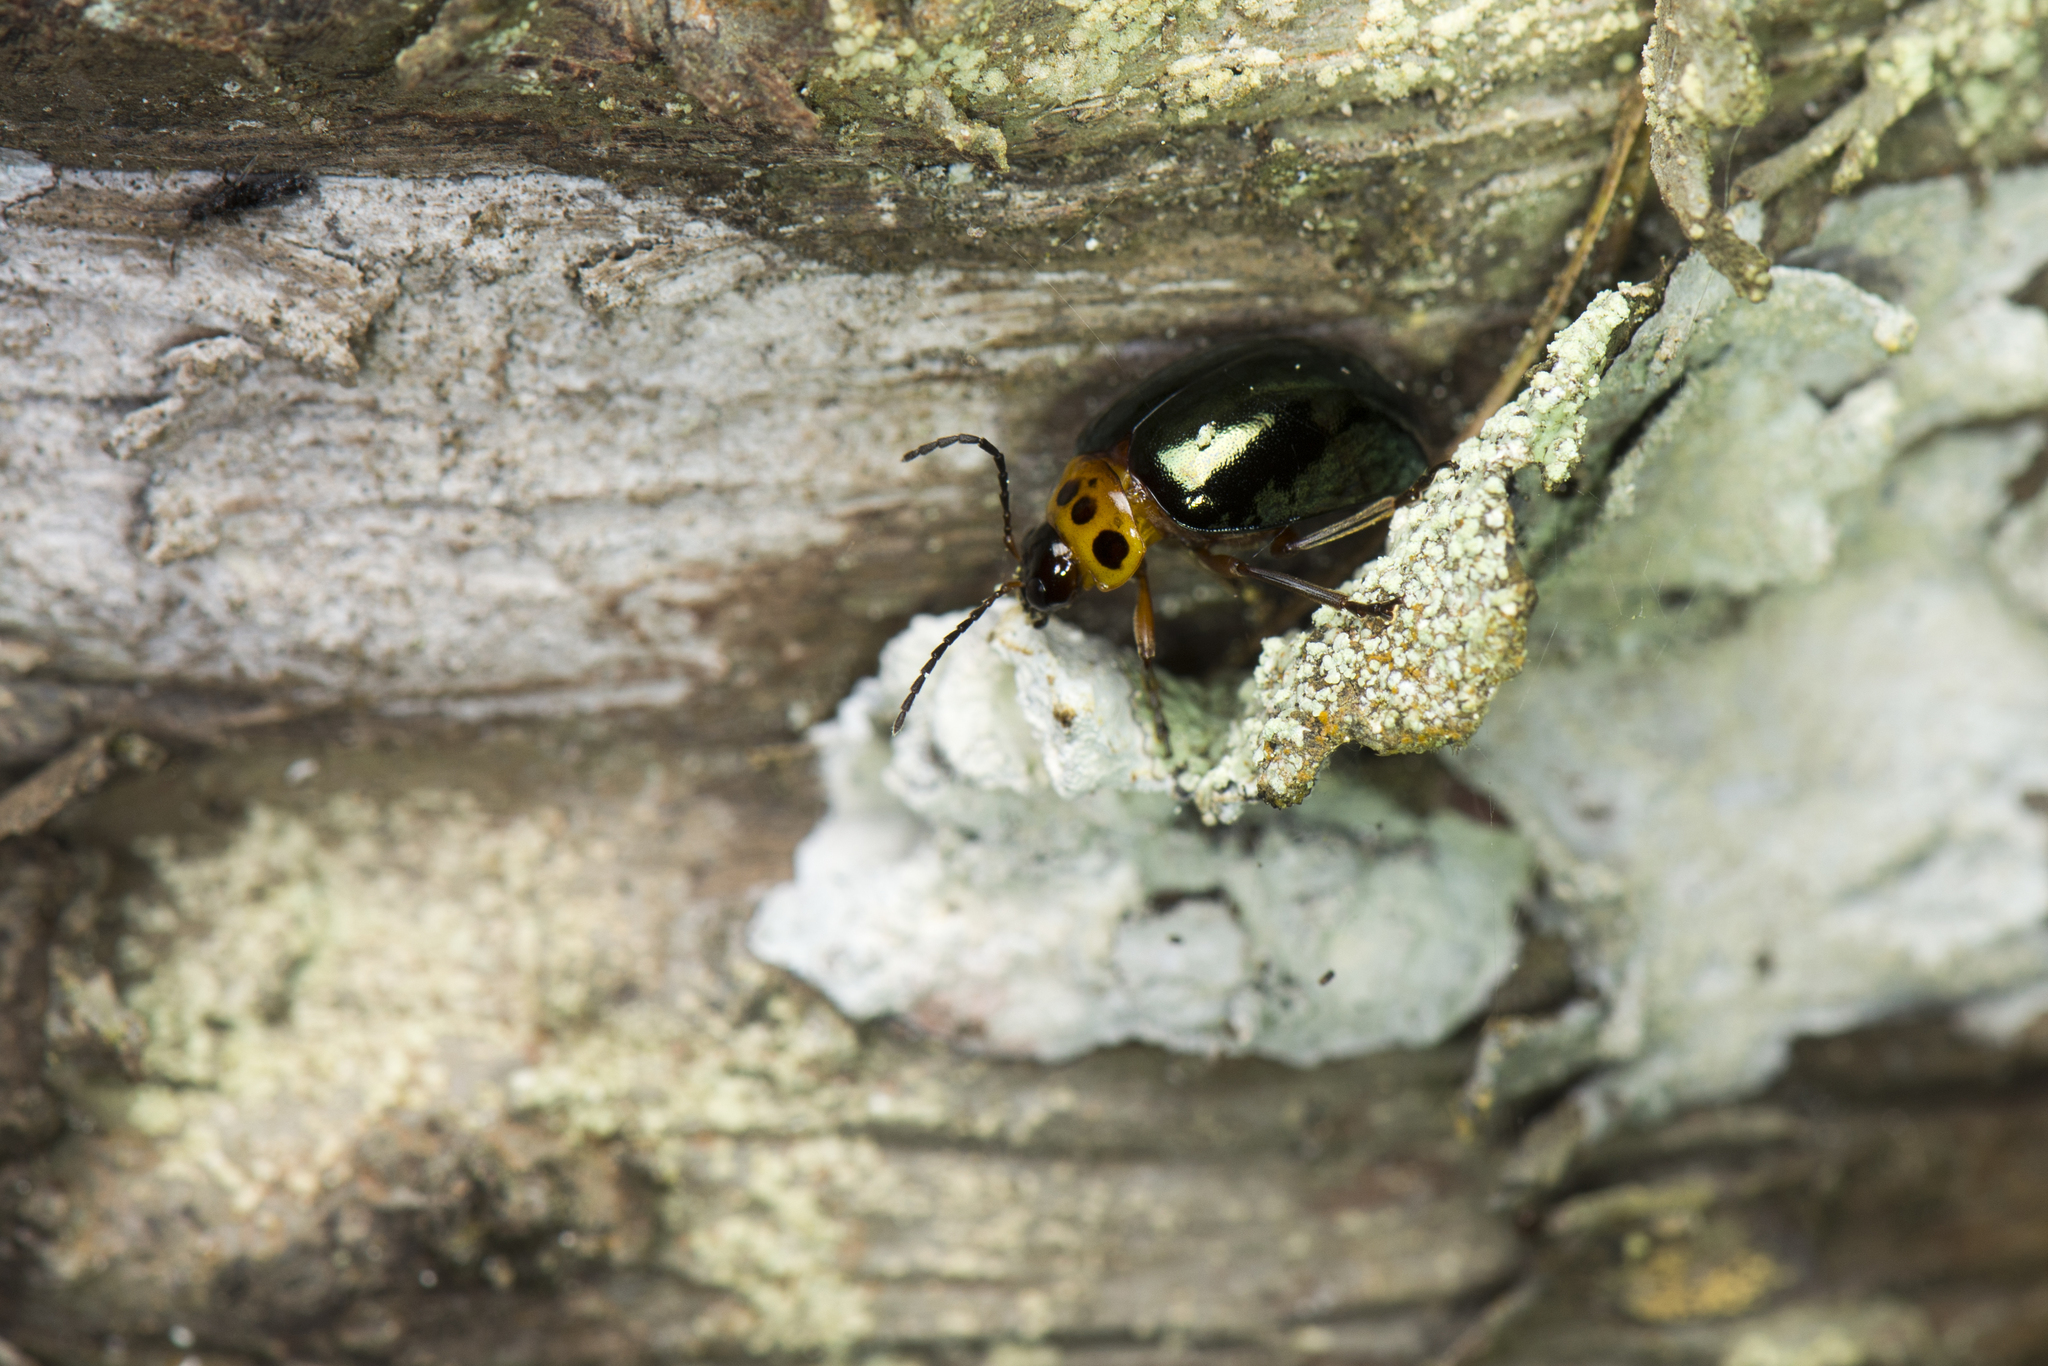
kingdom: Animalia
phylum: Arthropoda
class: Insecta
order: Coleoptera
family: Chrysomelidae
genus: Morphosphaera
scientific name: Morphosphaera chrysomeloides
